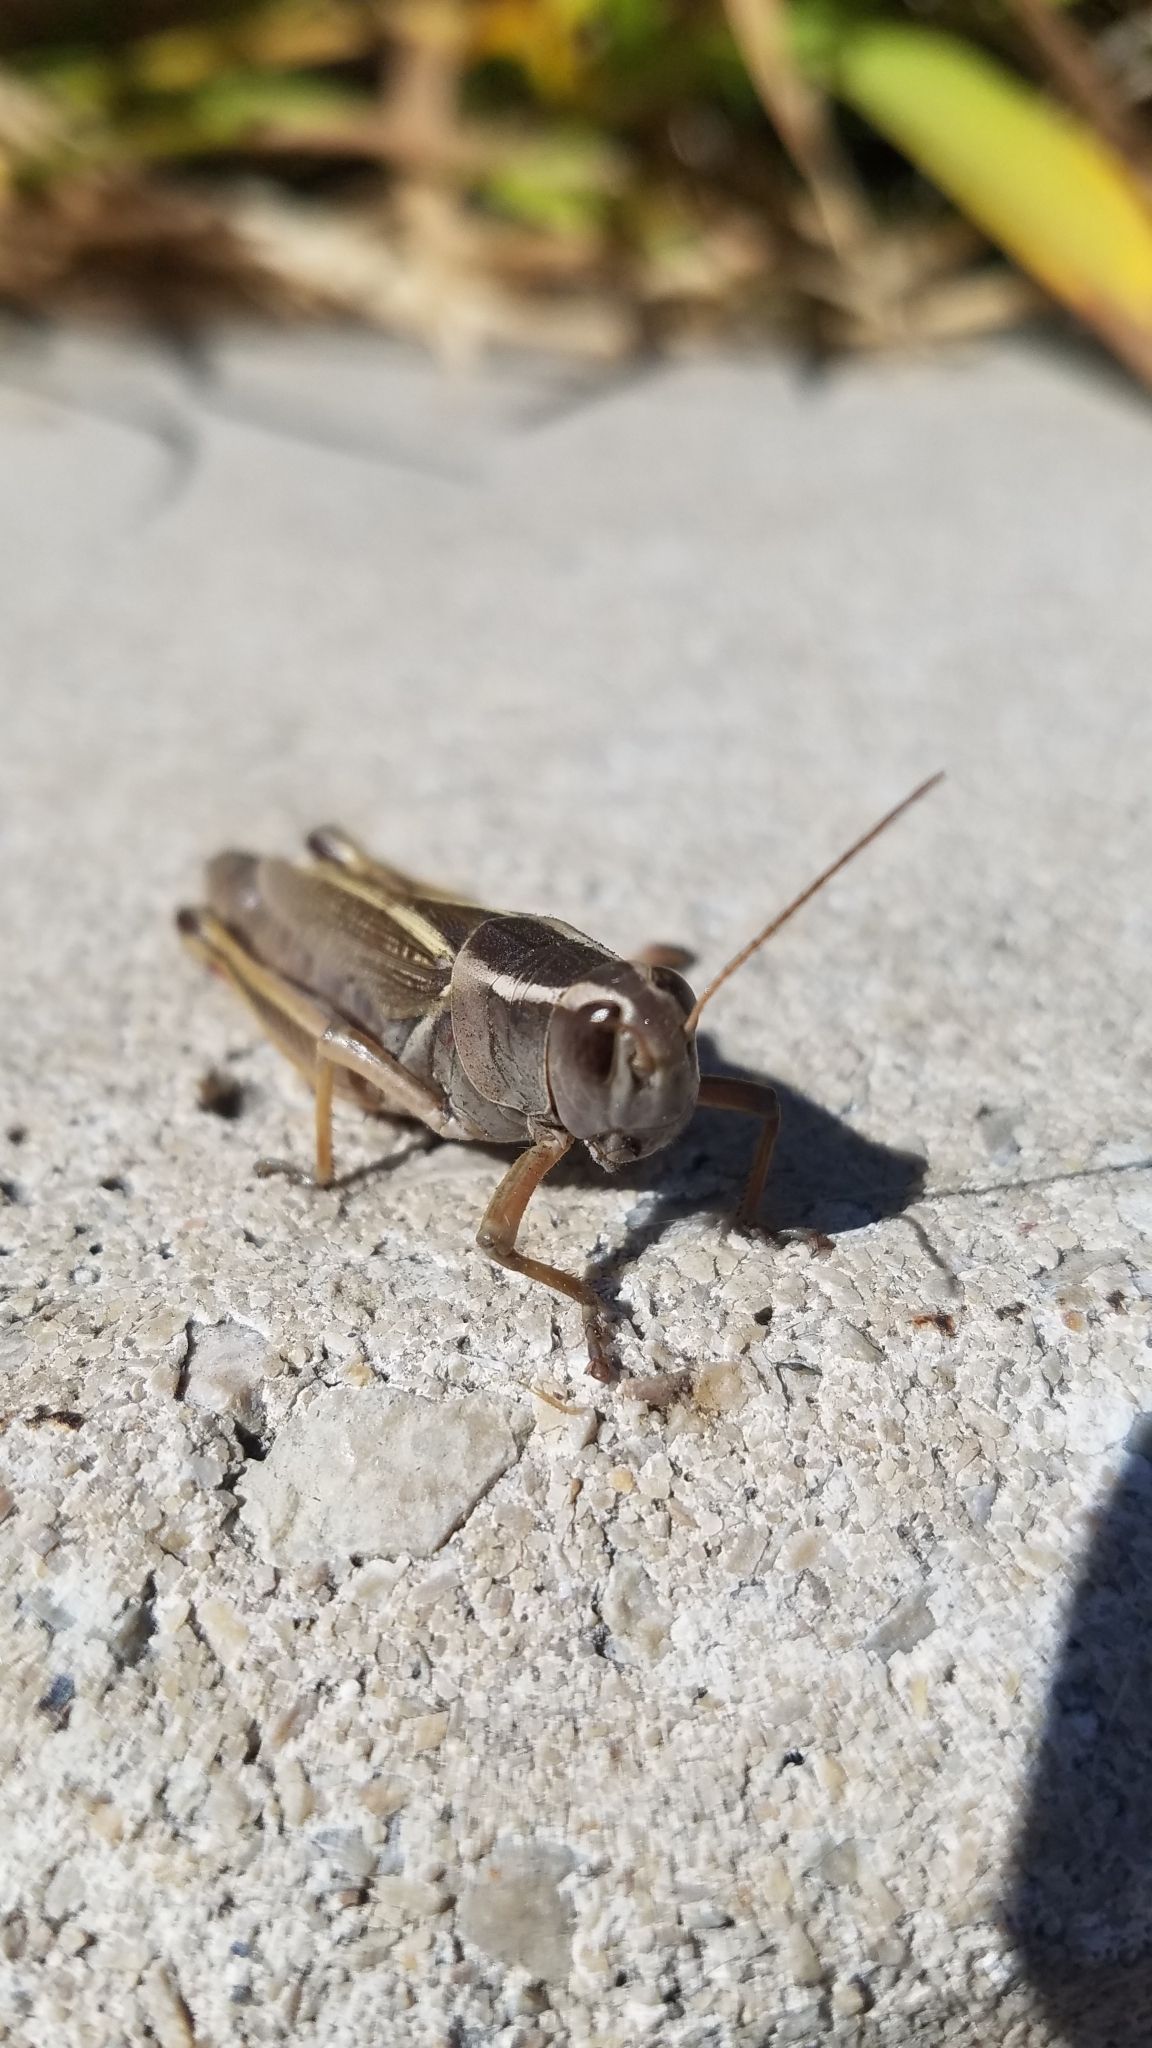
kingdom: Animalia
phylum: Arthropoda
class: Insecta
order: Orthoptera
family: Acrididae
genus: Melanoplus
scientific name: Melanoplus bivittatus
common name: Two-striped grasshopper
